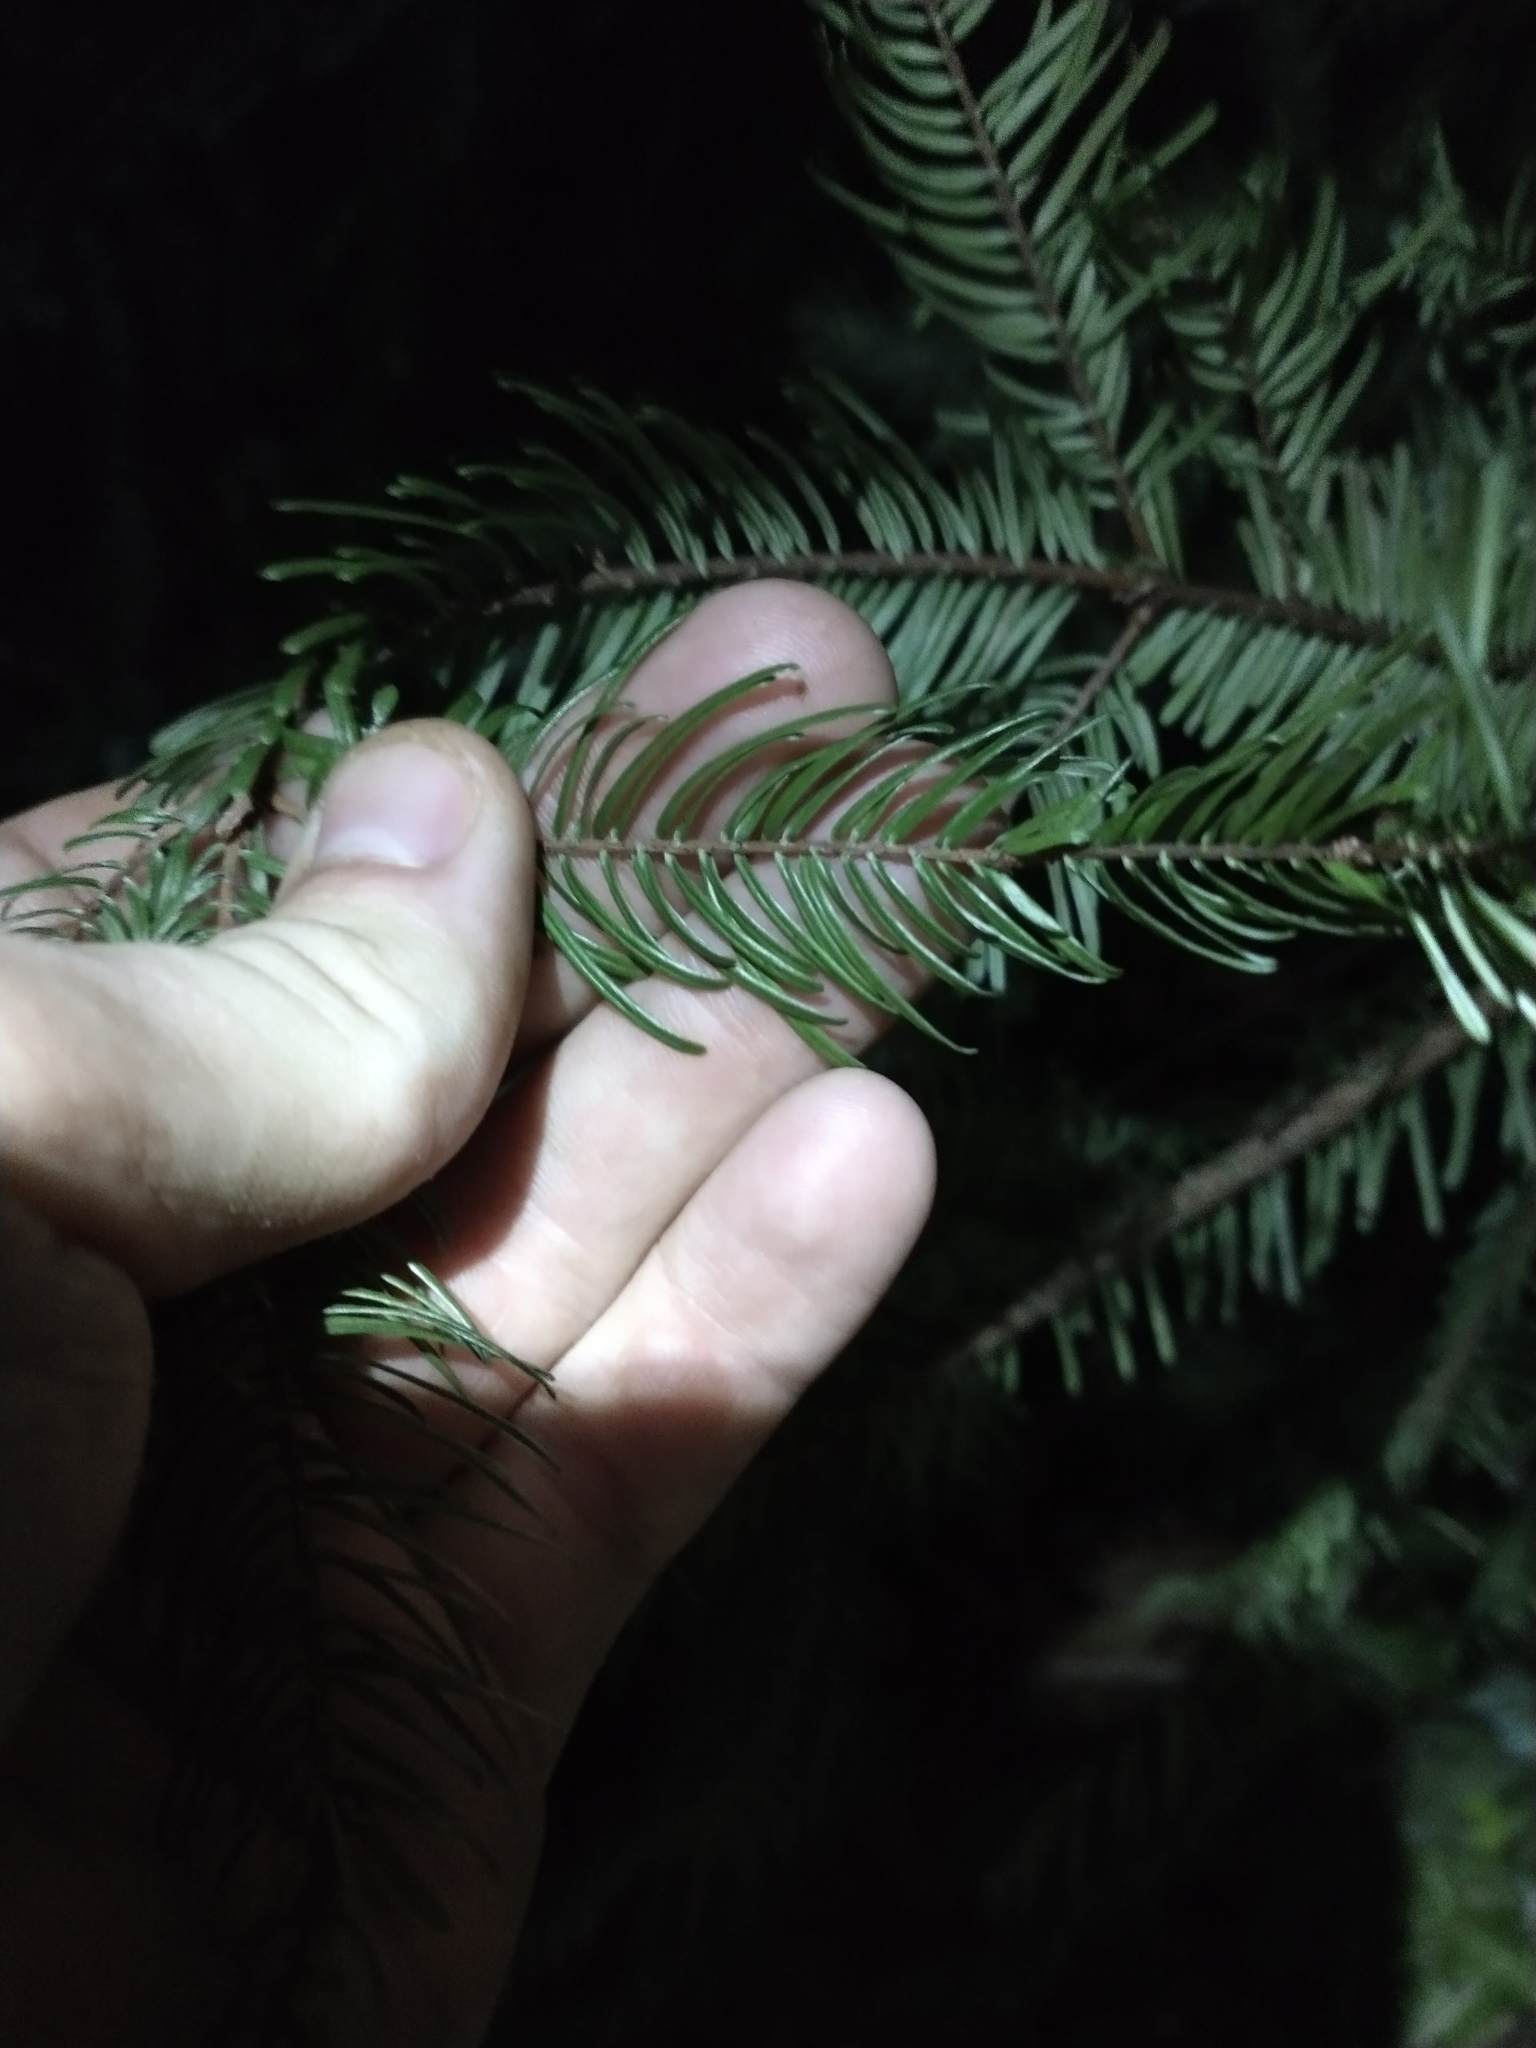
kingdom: Plantae
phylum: Tracheophyta
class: Pinopsida
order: Pinales
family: Pinaceae
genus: Abies
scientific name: Abies grandis
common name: Giant fir
